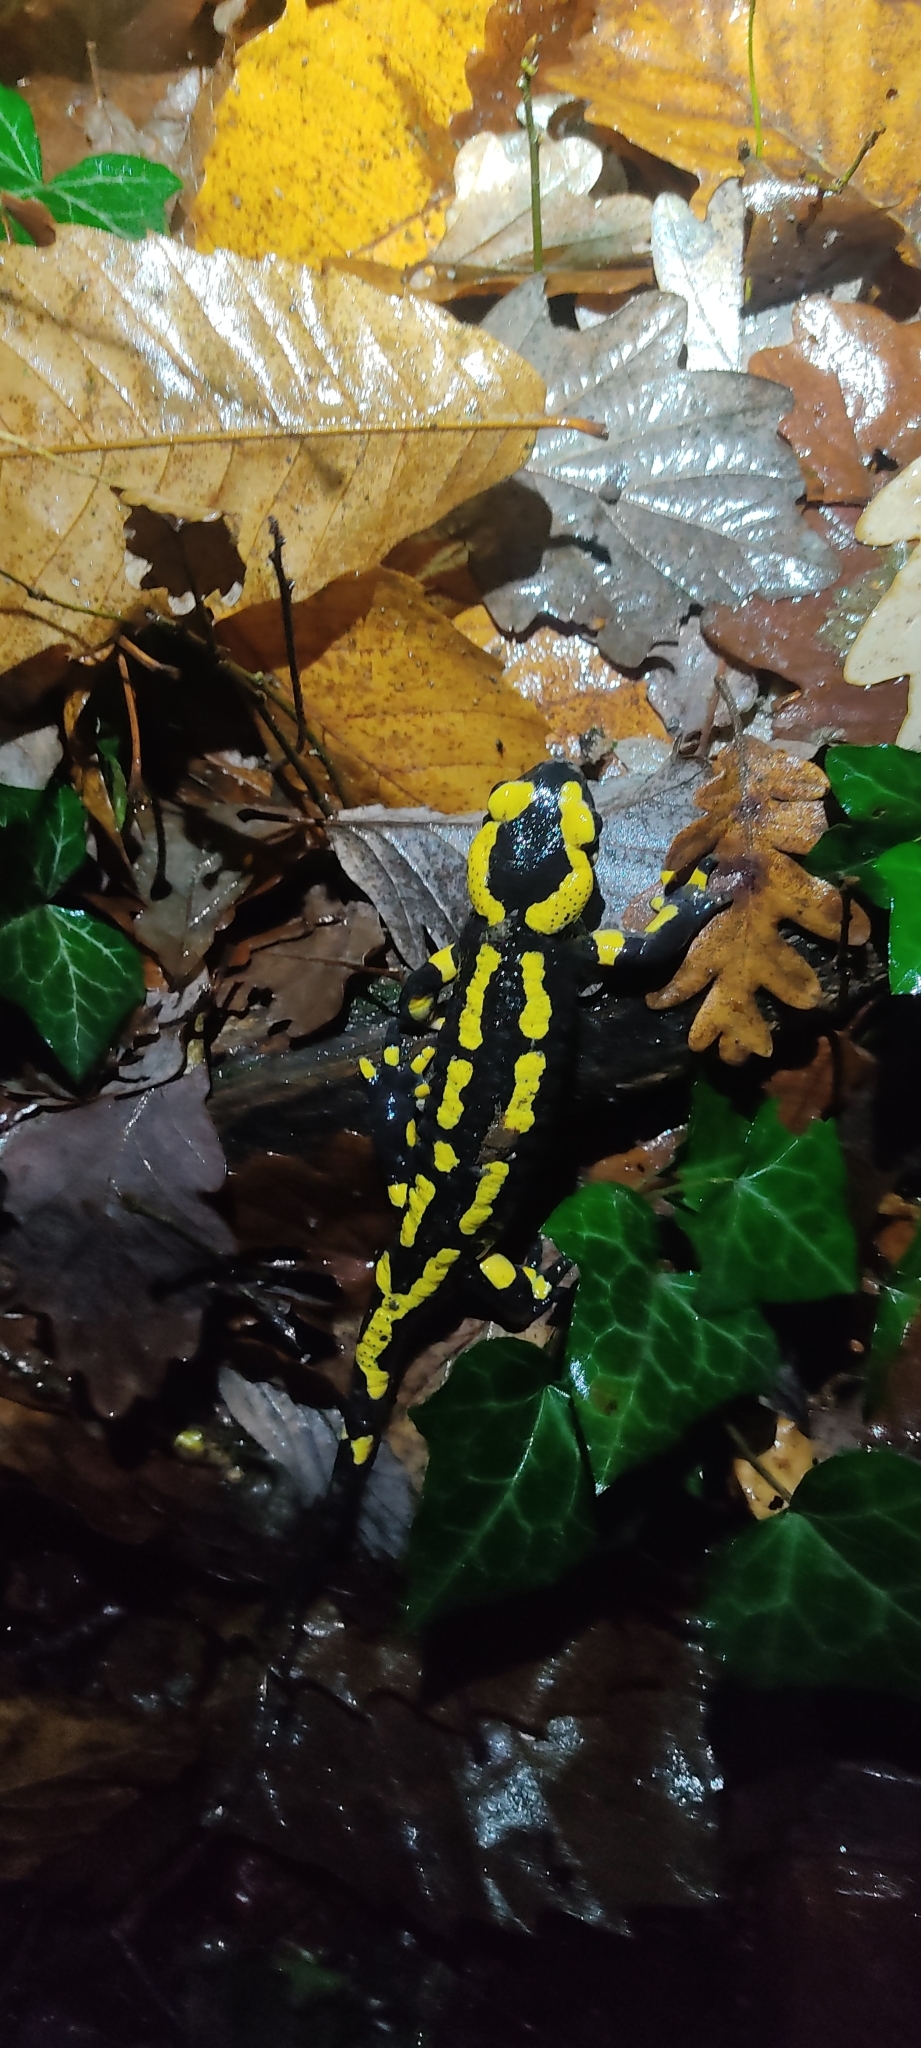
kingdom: Animalia
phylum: Chordata
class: Amphibia
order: Caudata
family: Salamandridae
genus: Salamandra
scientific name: Salamandra salamandra
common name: Fire salamander
